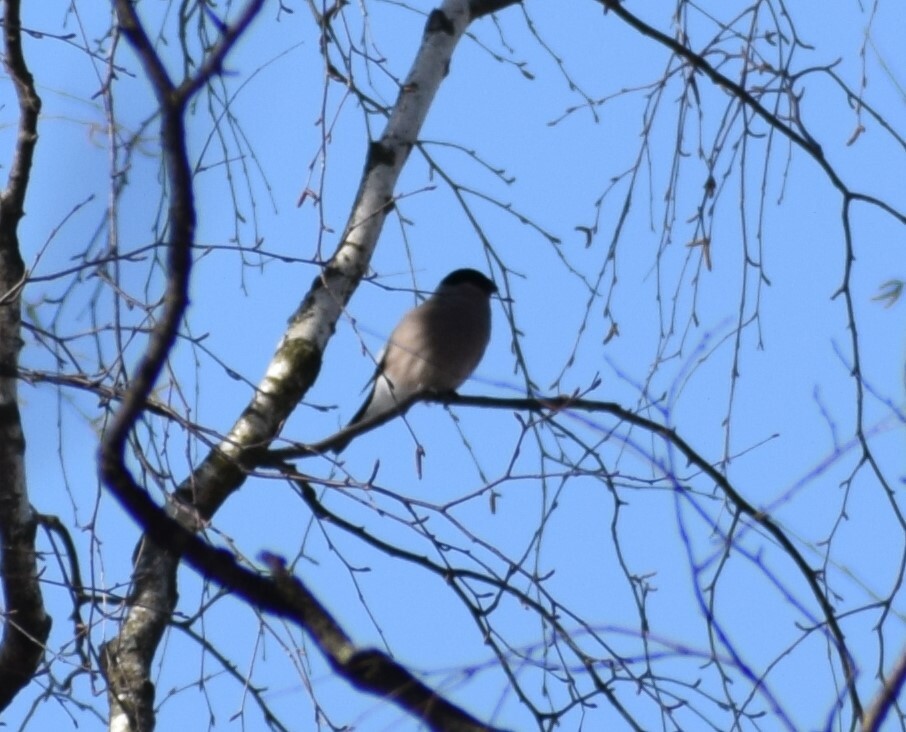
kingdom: Animalia
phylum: Chordata
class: Aves
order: Passeriformes
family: Fringillidae
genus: Pyrrhula
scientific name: Pyrrhula pyrrhula
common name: Eurasian bullfinch
